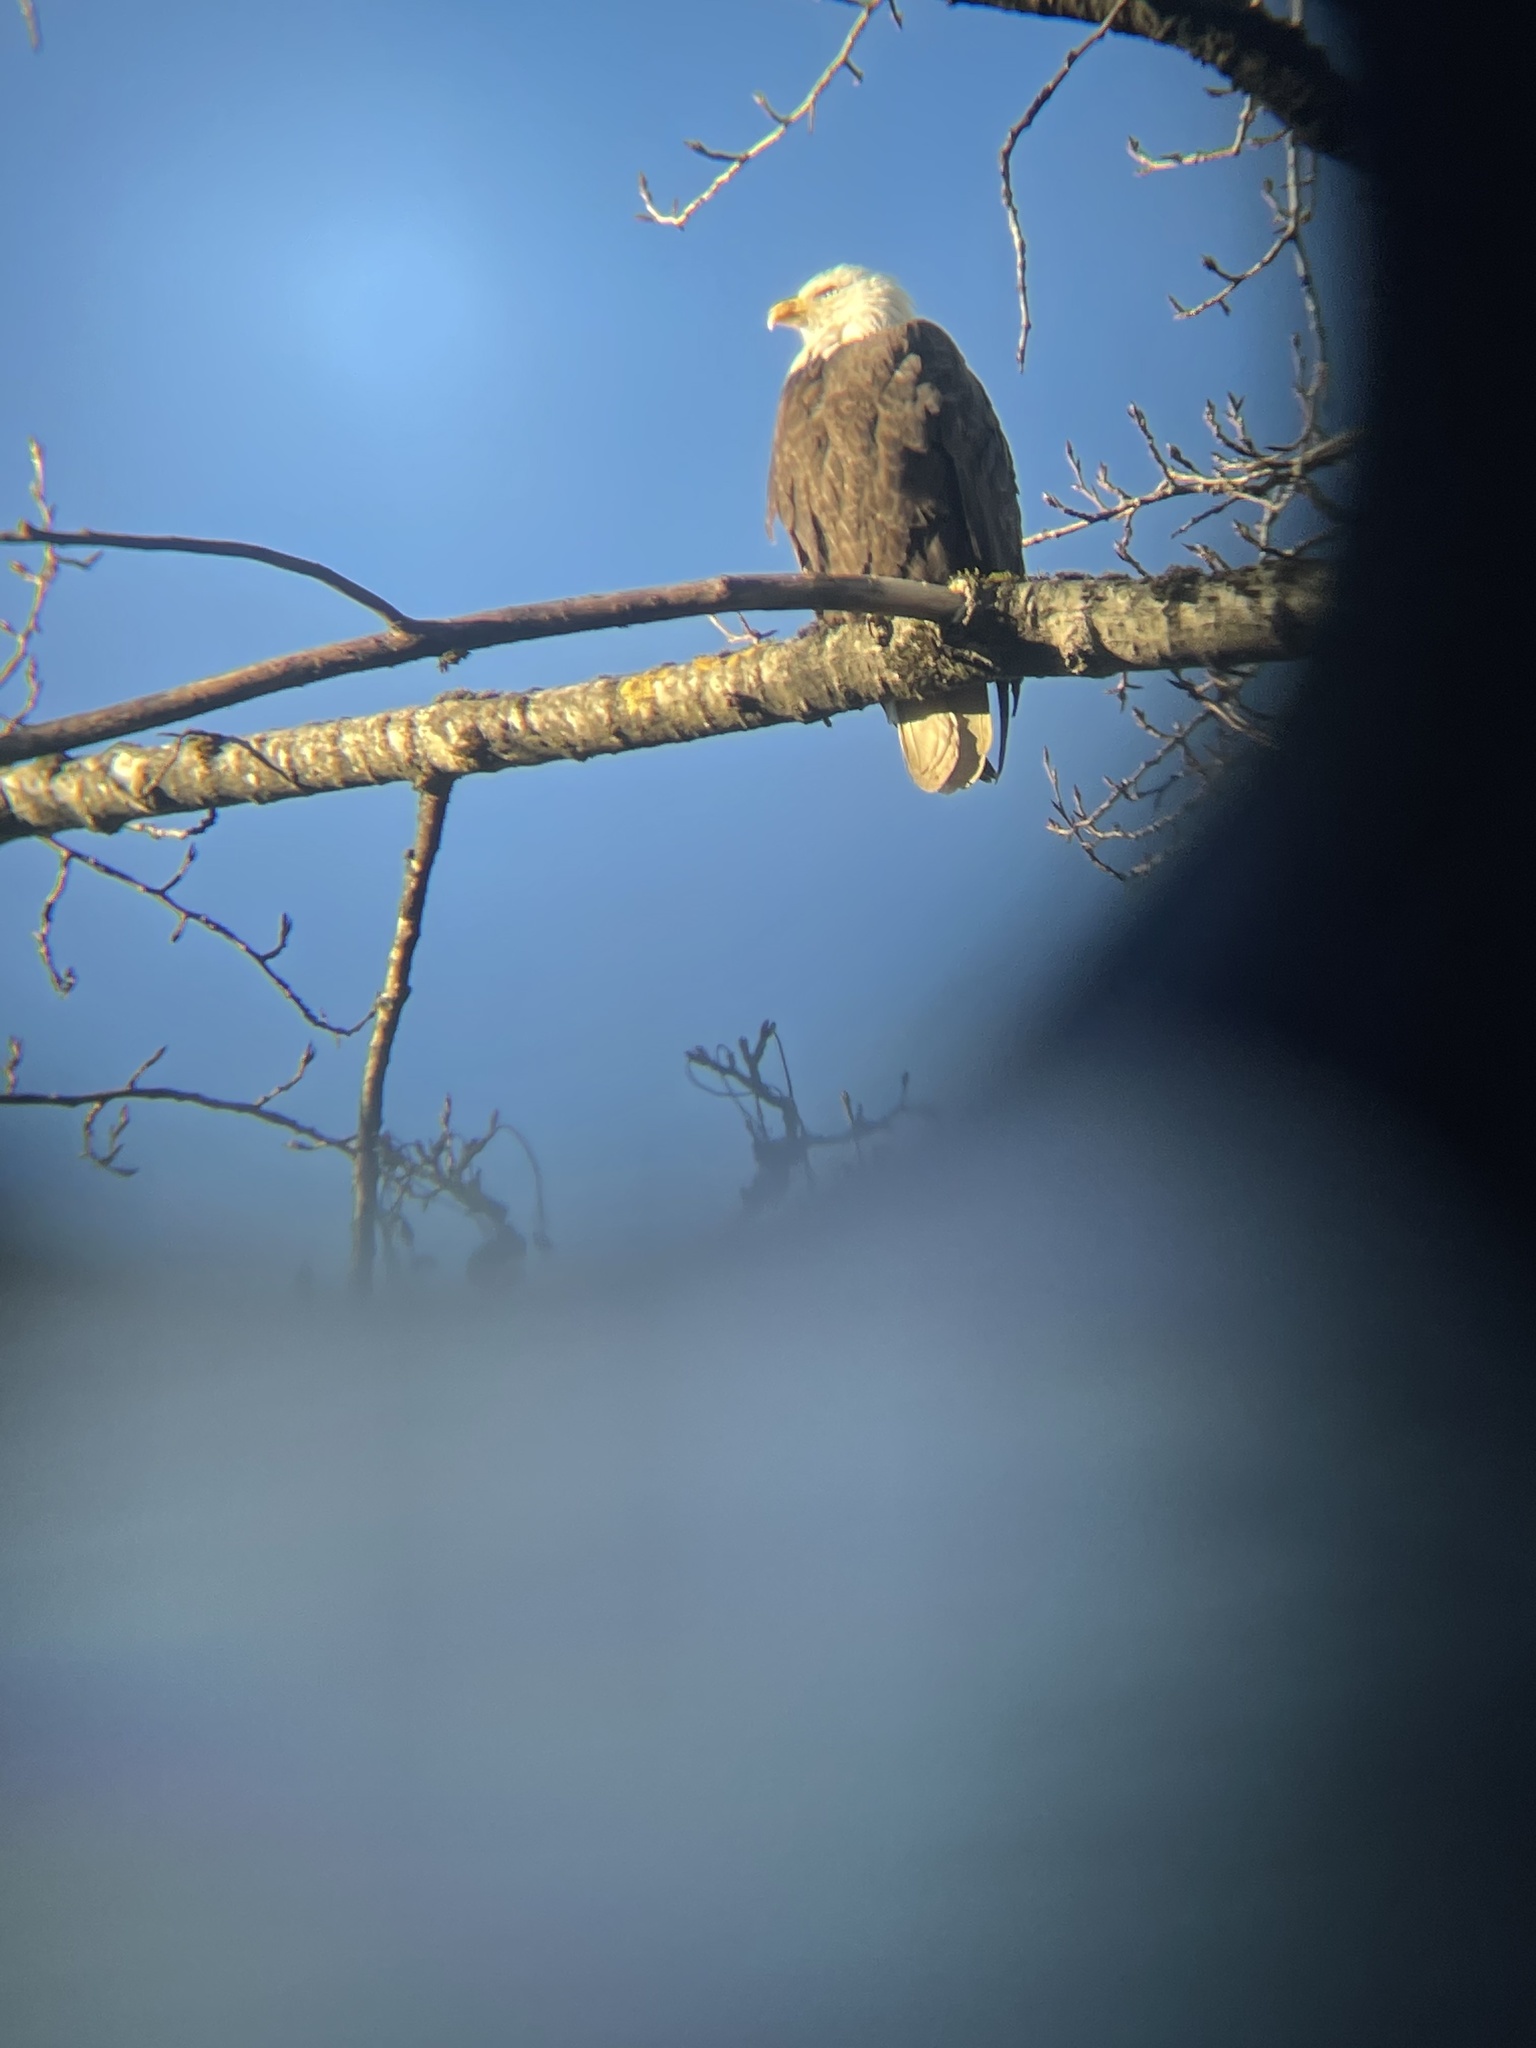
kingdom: Animalia
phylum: Chordata
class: Aves
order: Accipitriformes
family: Accipitridae
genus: Haliaeetus
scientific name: Haliaeetus leucocephalus
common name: Bald eagle
